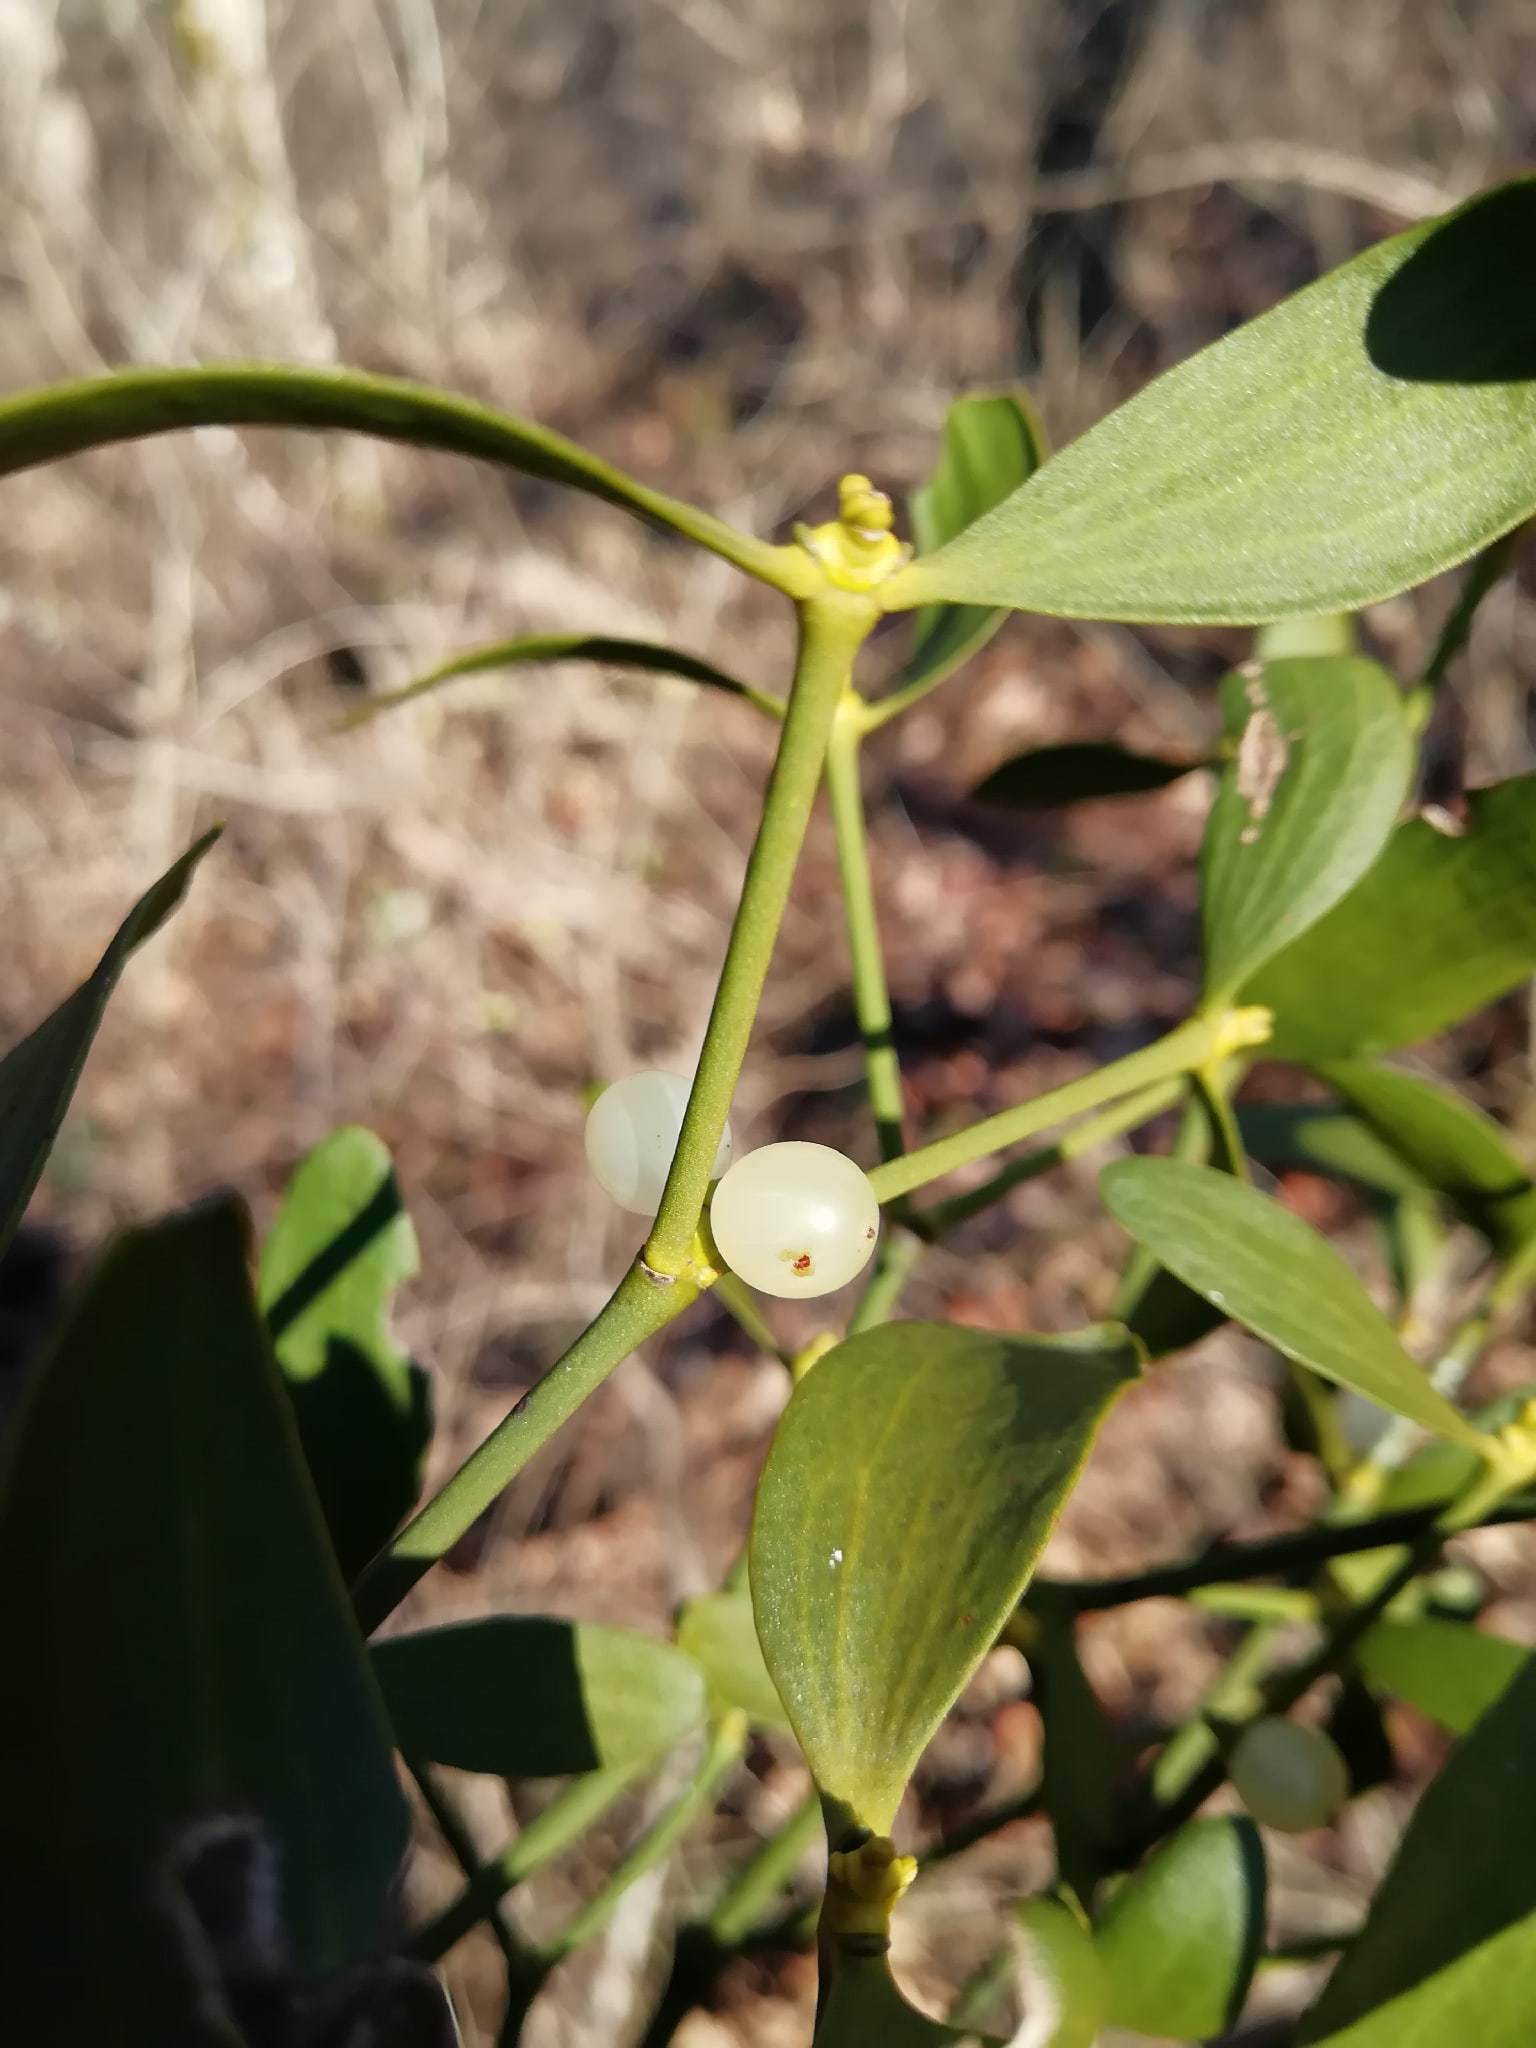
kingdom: Plantae
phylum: Tracheophyta
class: Magnoliopsida
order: Santalales
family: Viscaceae
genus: Viscum
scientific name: Viscum album
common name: Mistletoe
